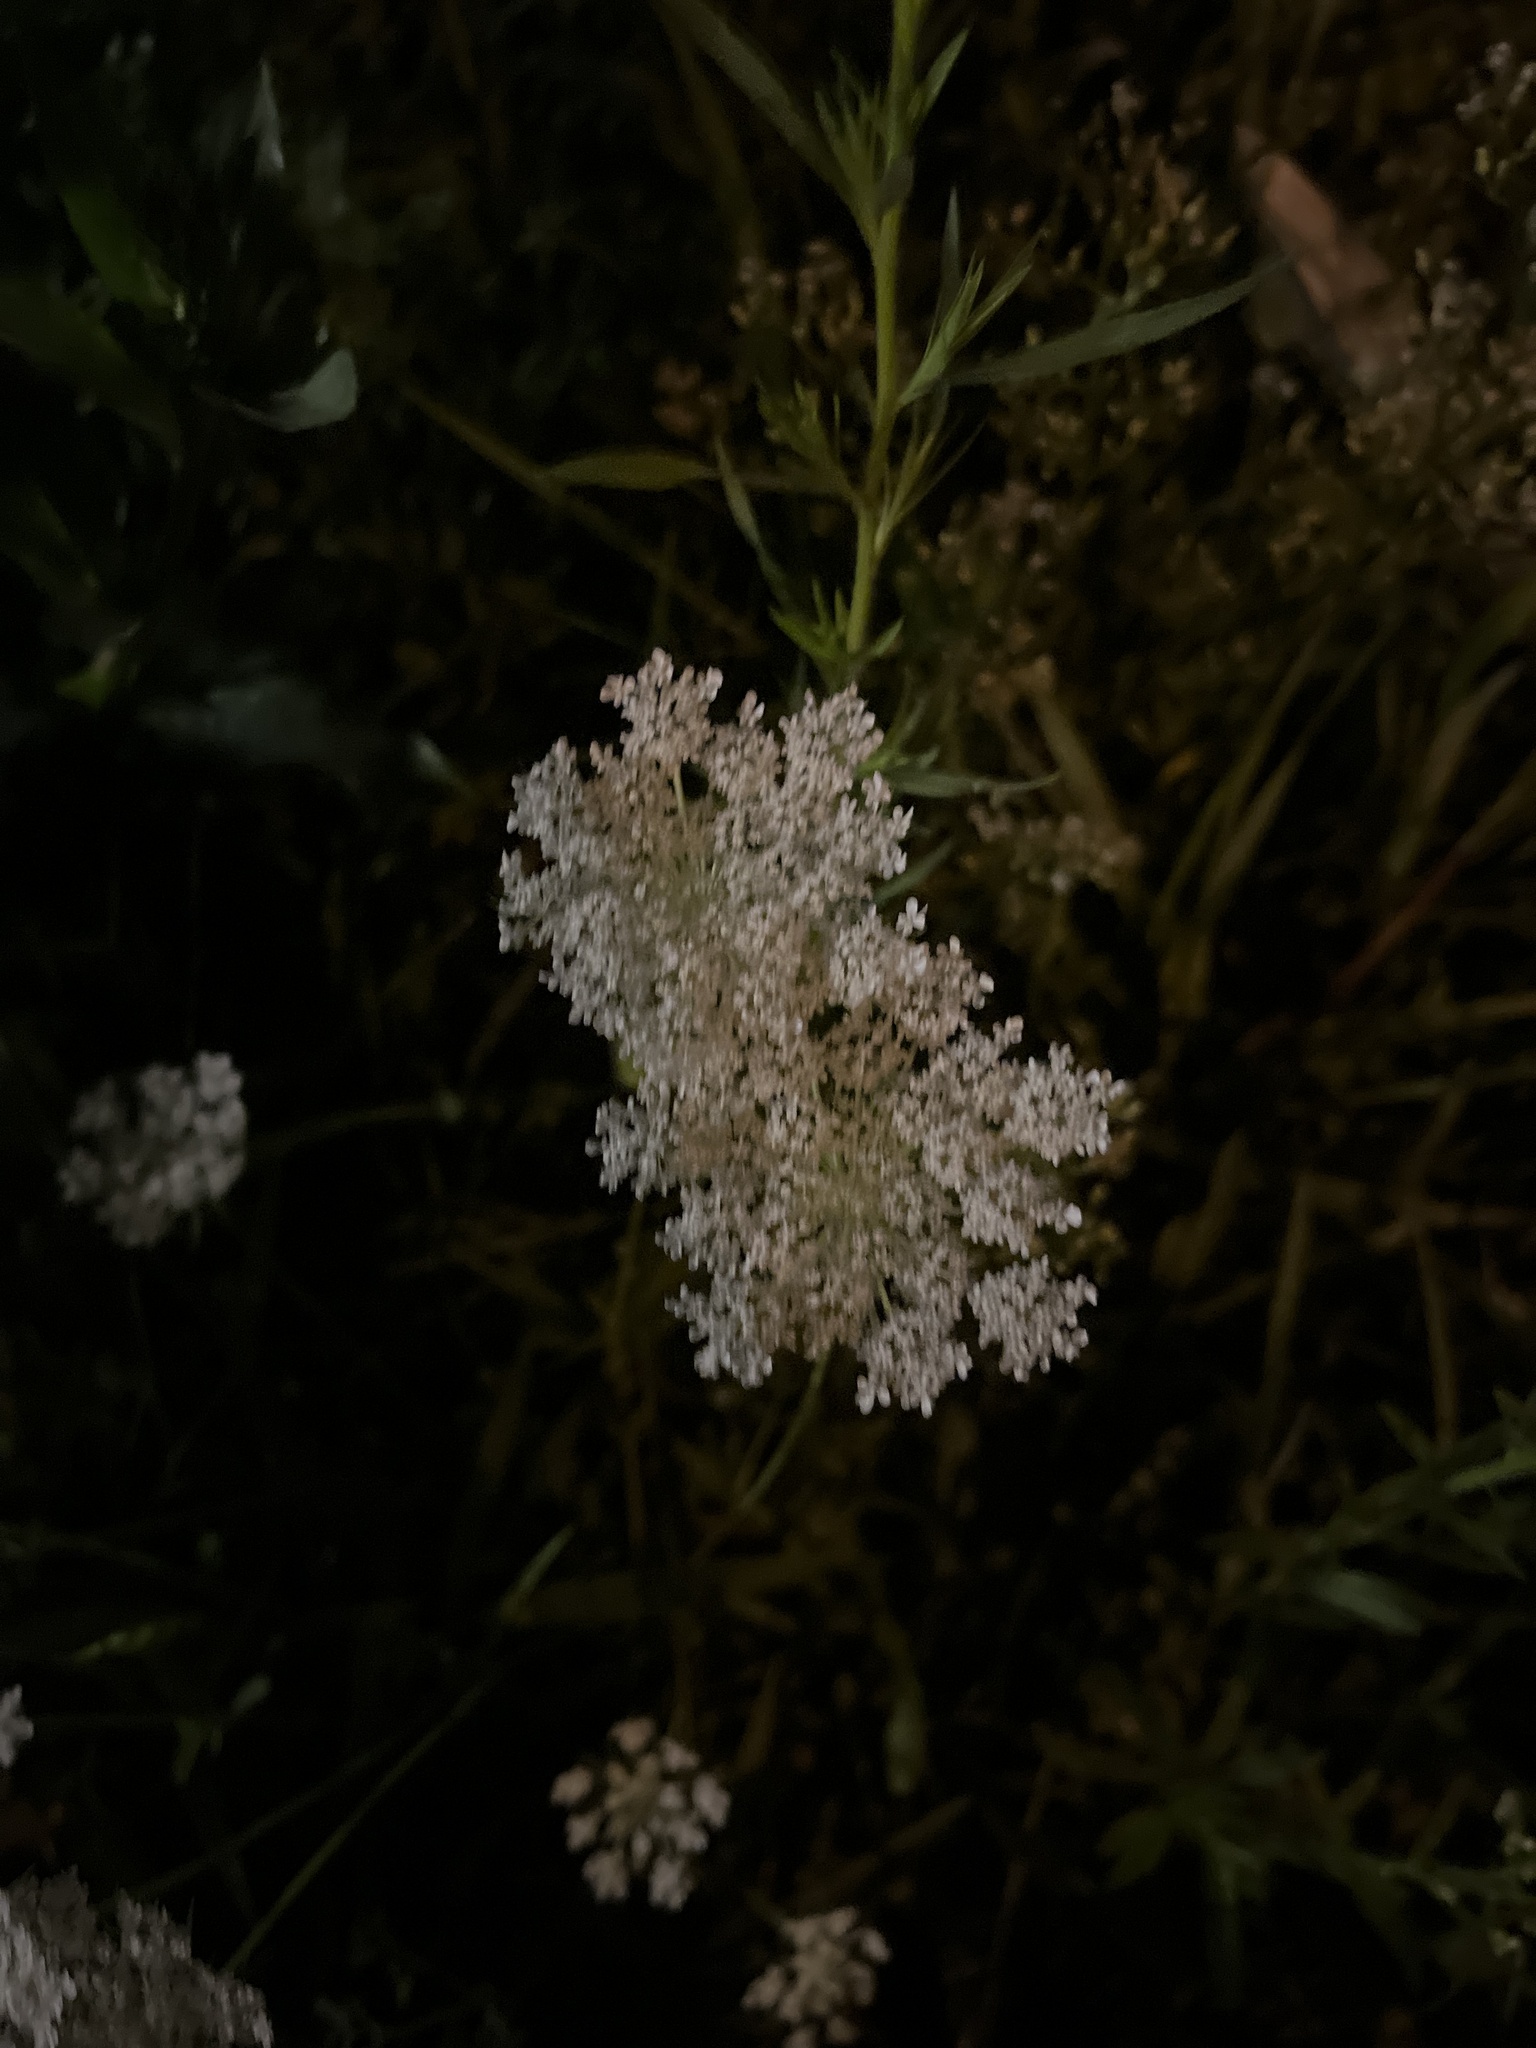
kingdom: Plantae
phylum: Tracheophyta
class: Magnoliopsida
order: Apiales
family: Apiaceae
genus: Daucus
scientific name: Daucus carota
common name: Wild carrot
